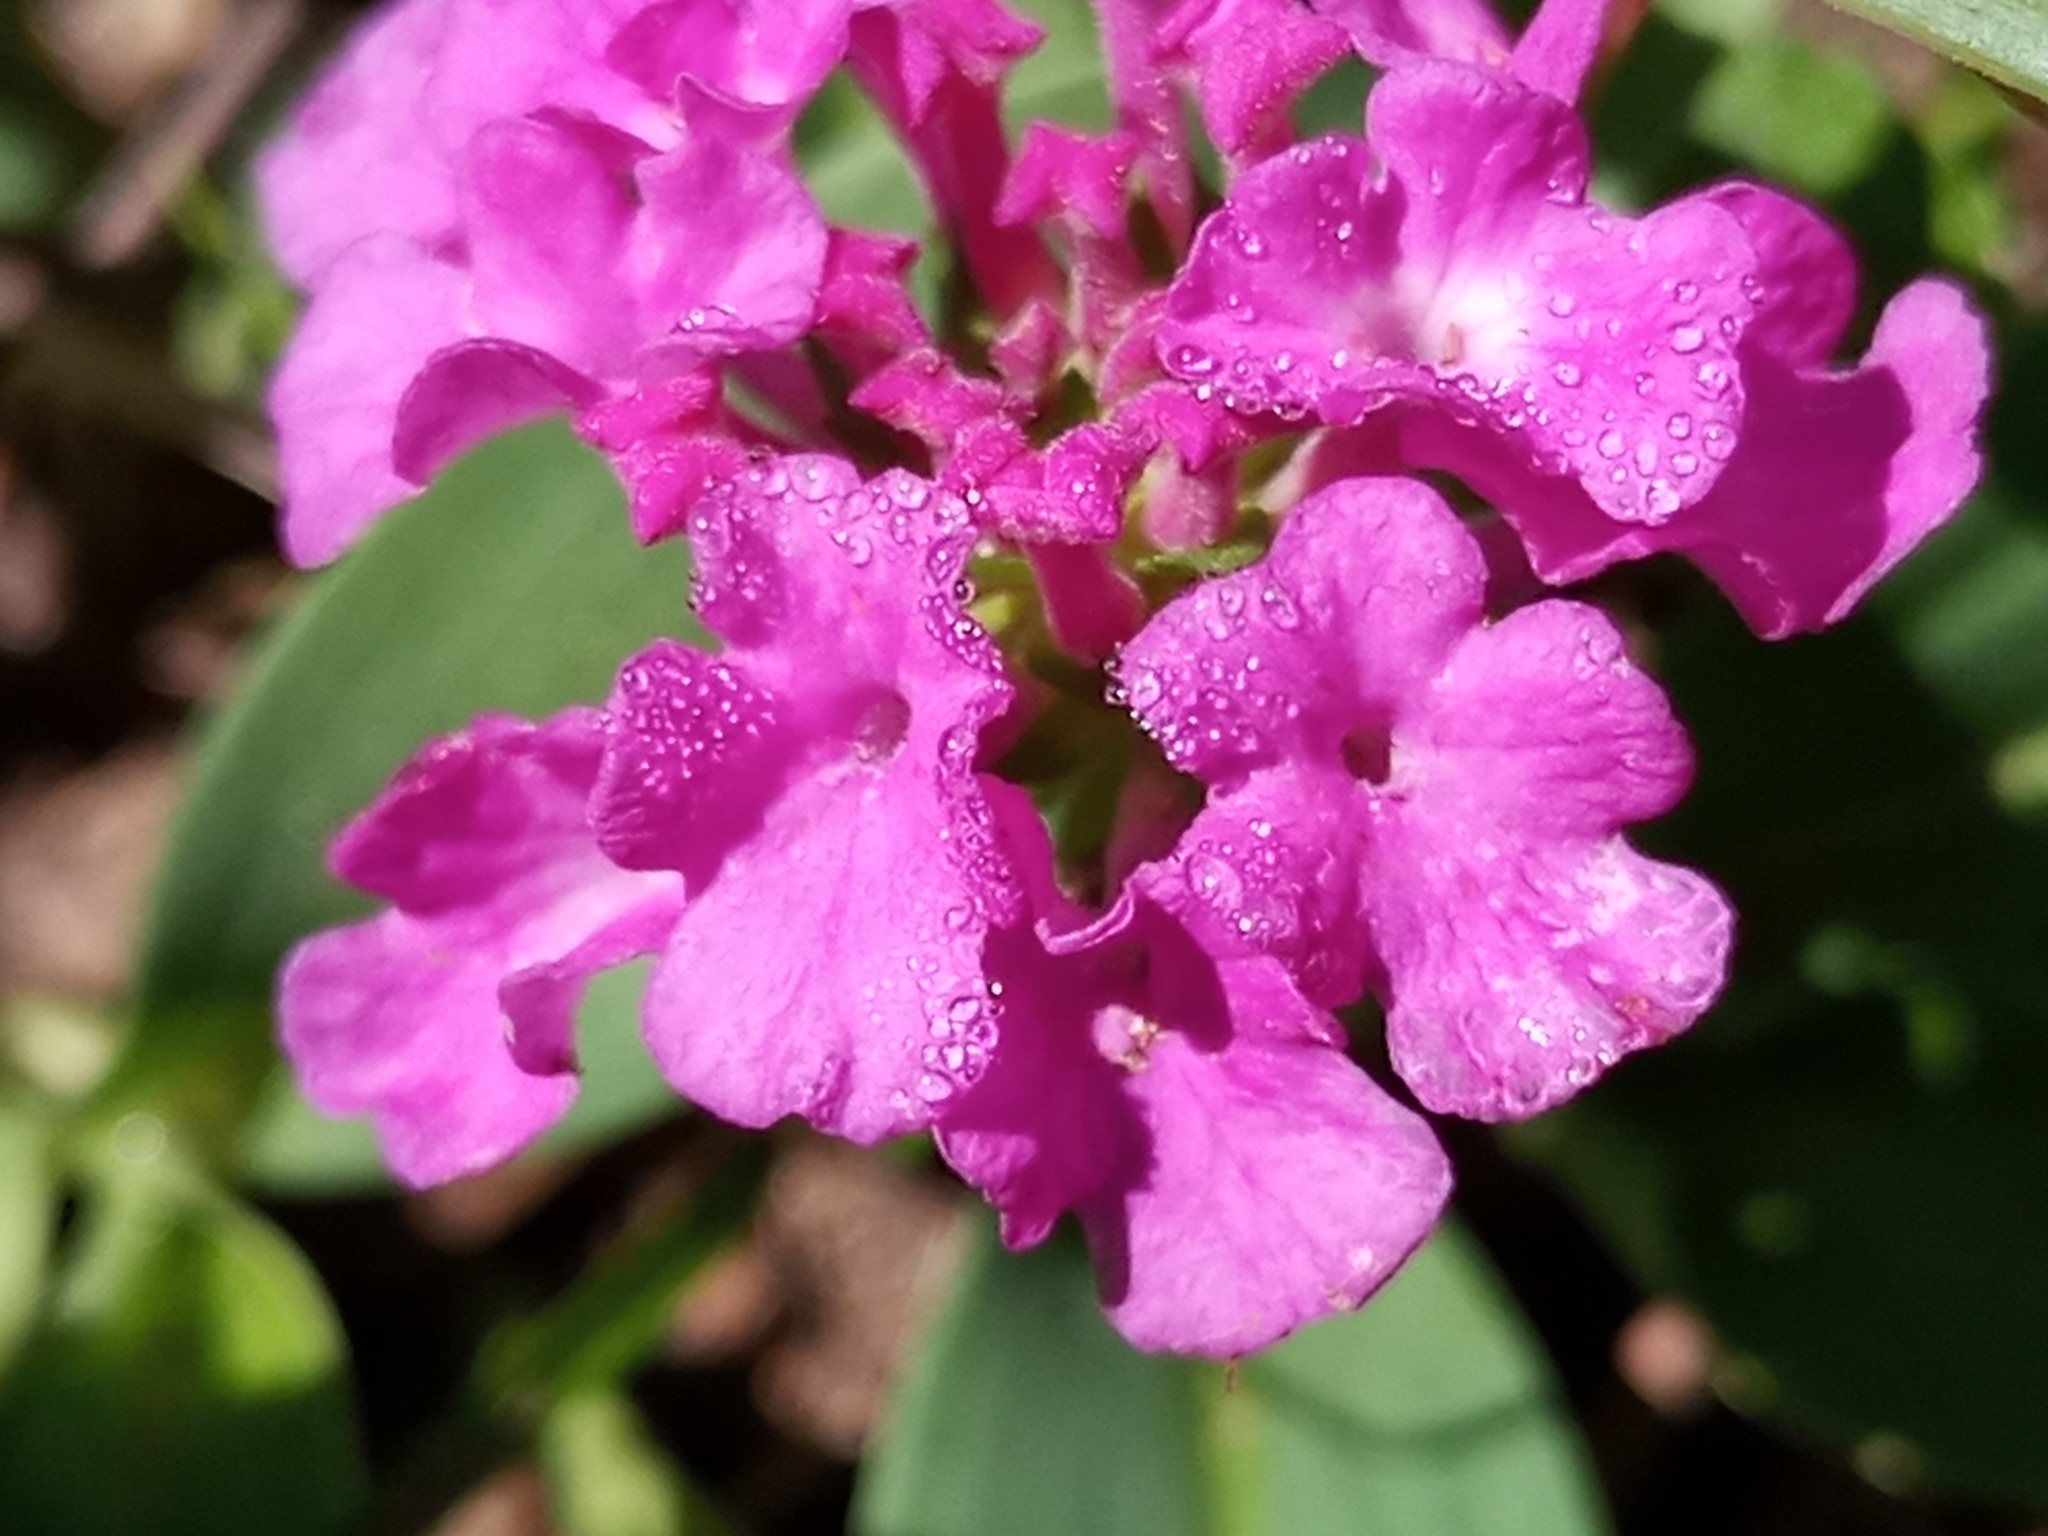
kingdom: Plantae
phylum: Tracheophyta
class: Magnoliopsida
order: Lamiales
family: Verbenaceae
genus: Lantana
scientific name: Lantana montevidensis
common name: Trailing shrubverbena
